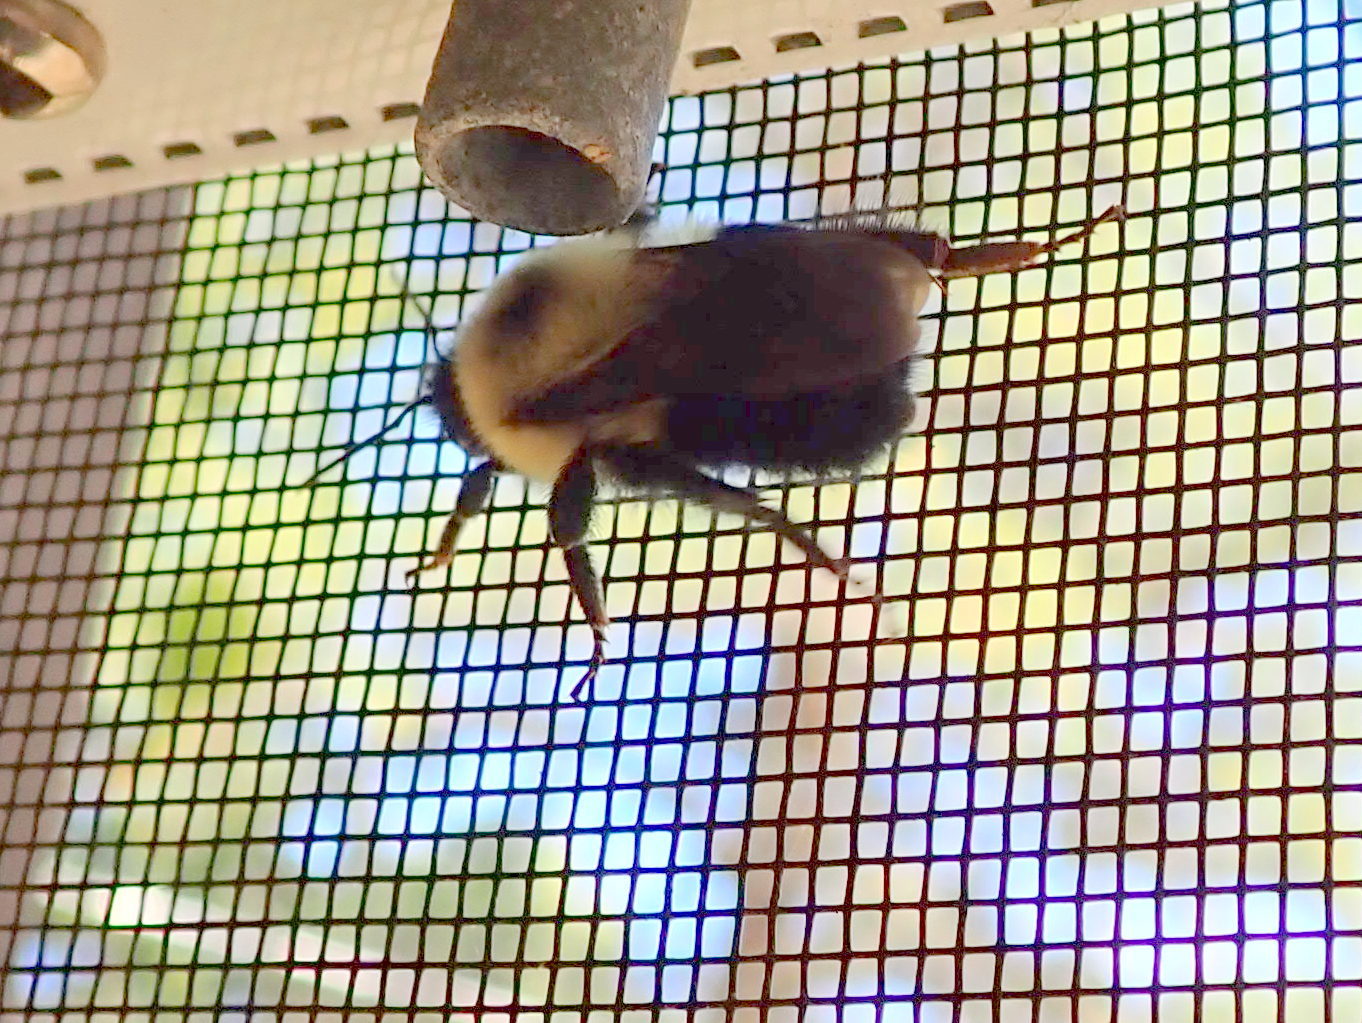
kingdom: Animalia
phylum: Arthropoda
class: Insecta
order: Hymenoptera
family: Apidae
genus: Bombus
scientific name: Bombus bimaculatus
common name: Two-spotted bumble bee
